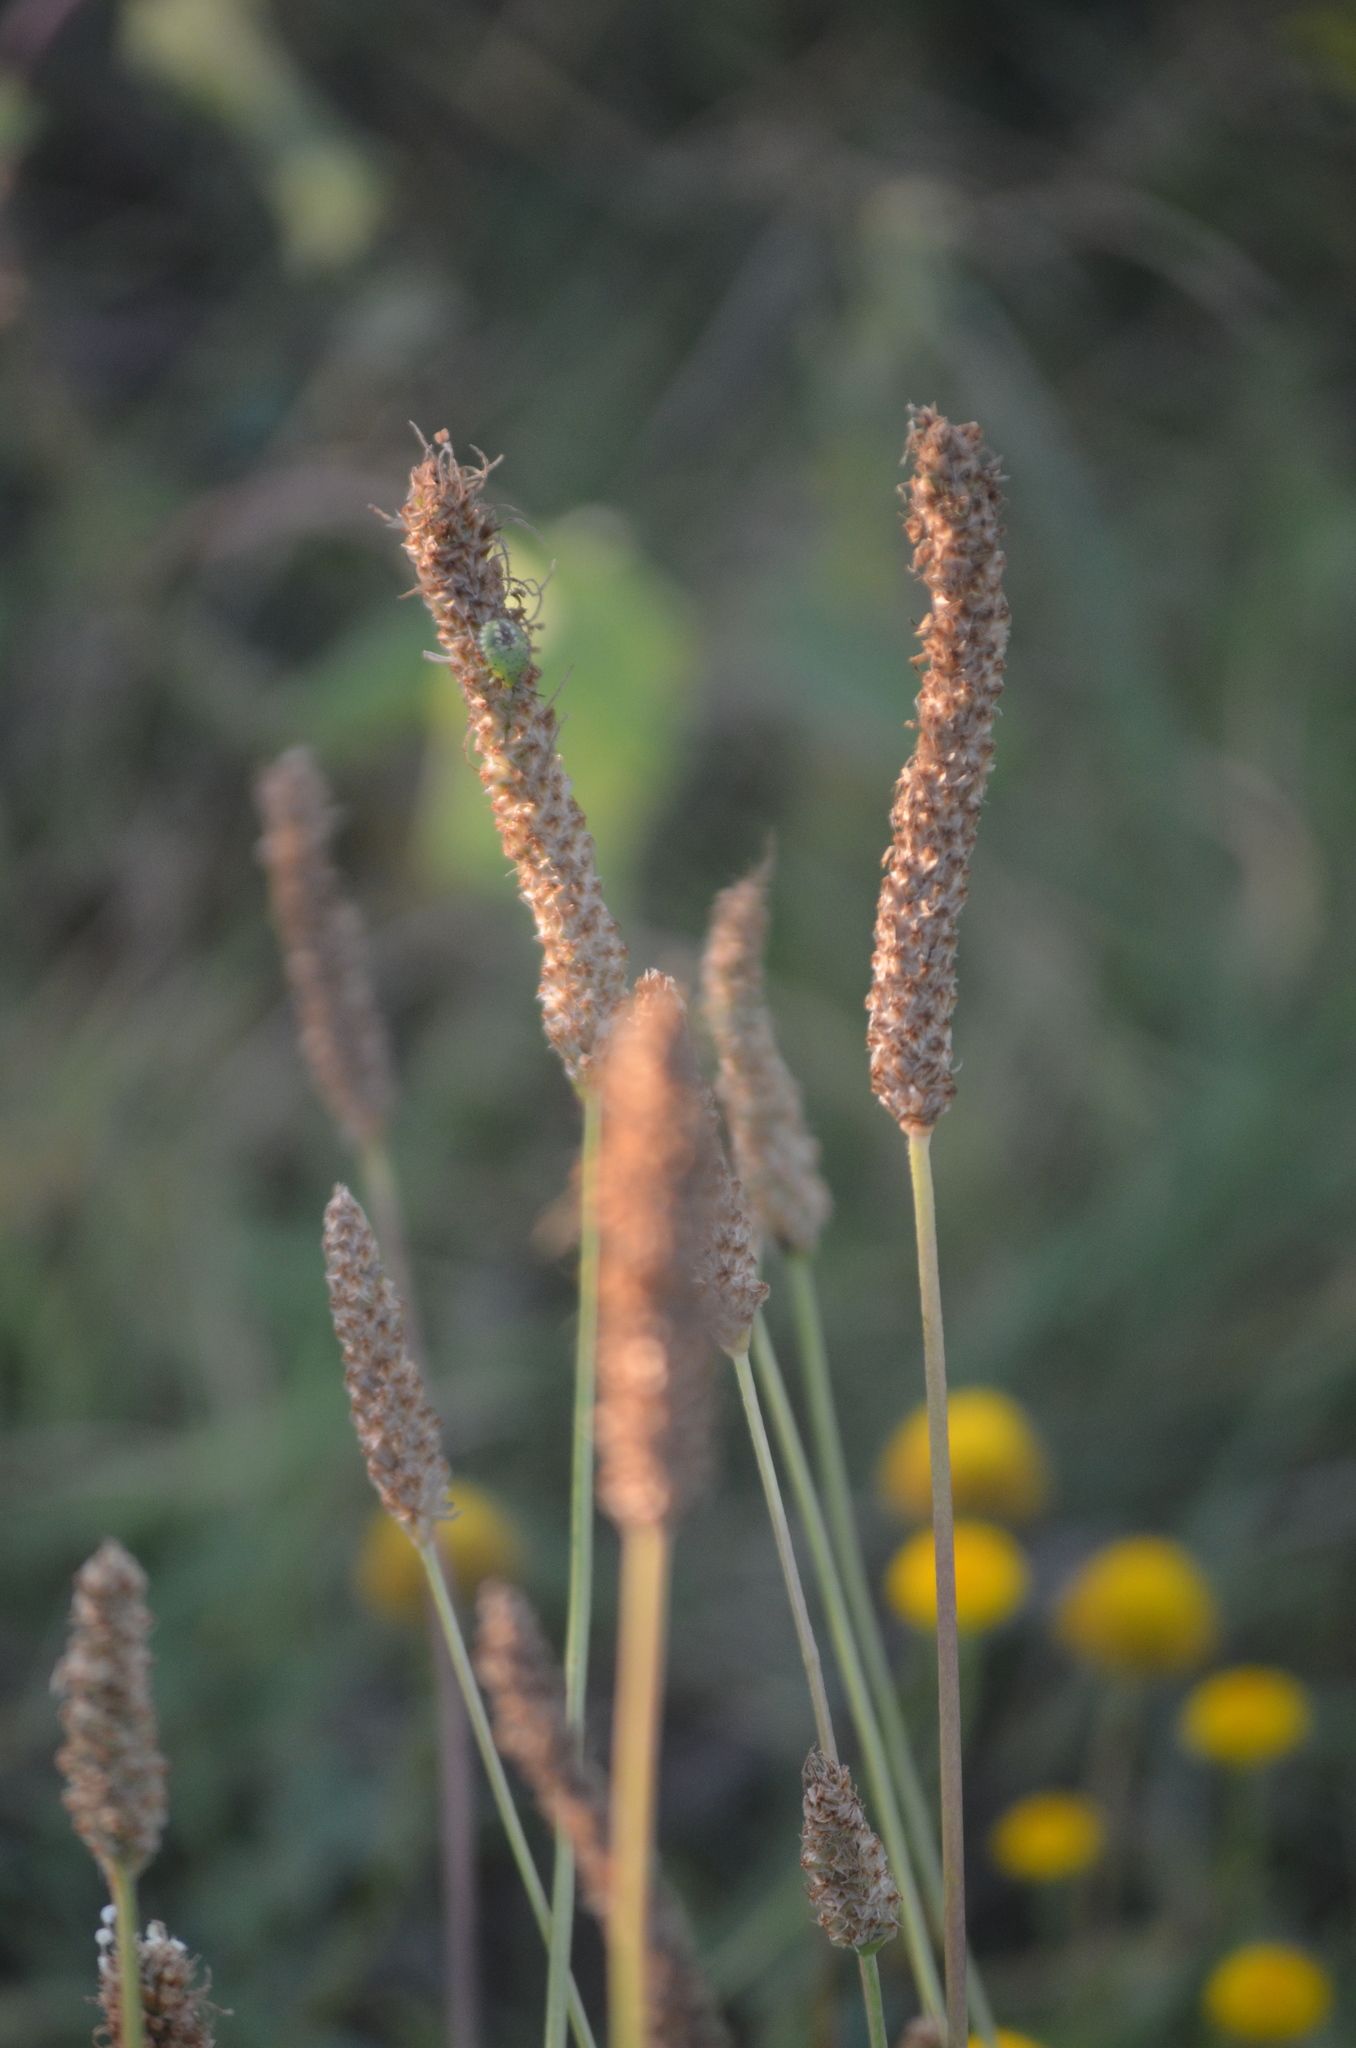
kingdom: Plantae
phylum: Tracheophyta
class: Magnoliopsida
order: Lamiales
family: Plantaginaceae
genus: Plantago
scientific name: Plantago lanceolata
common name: Ribwort plantain
